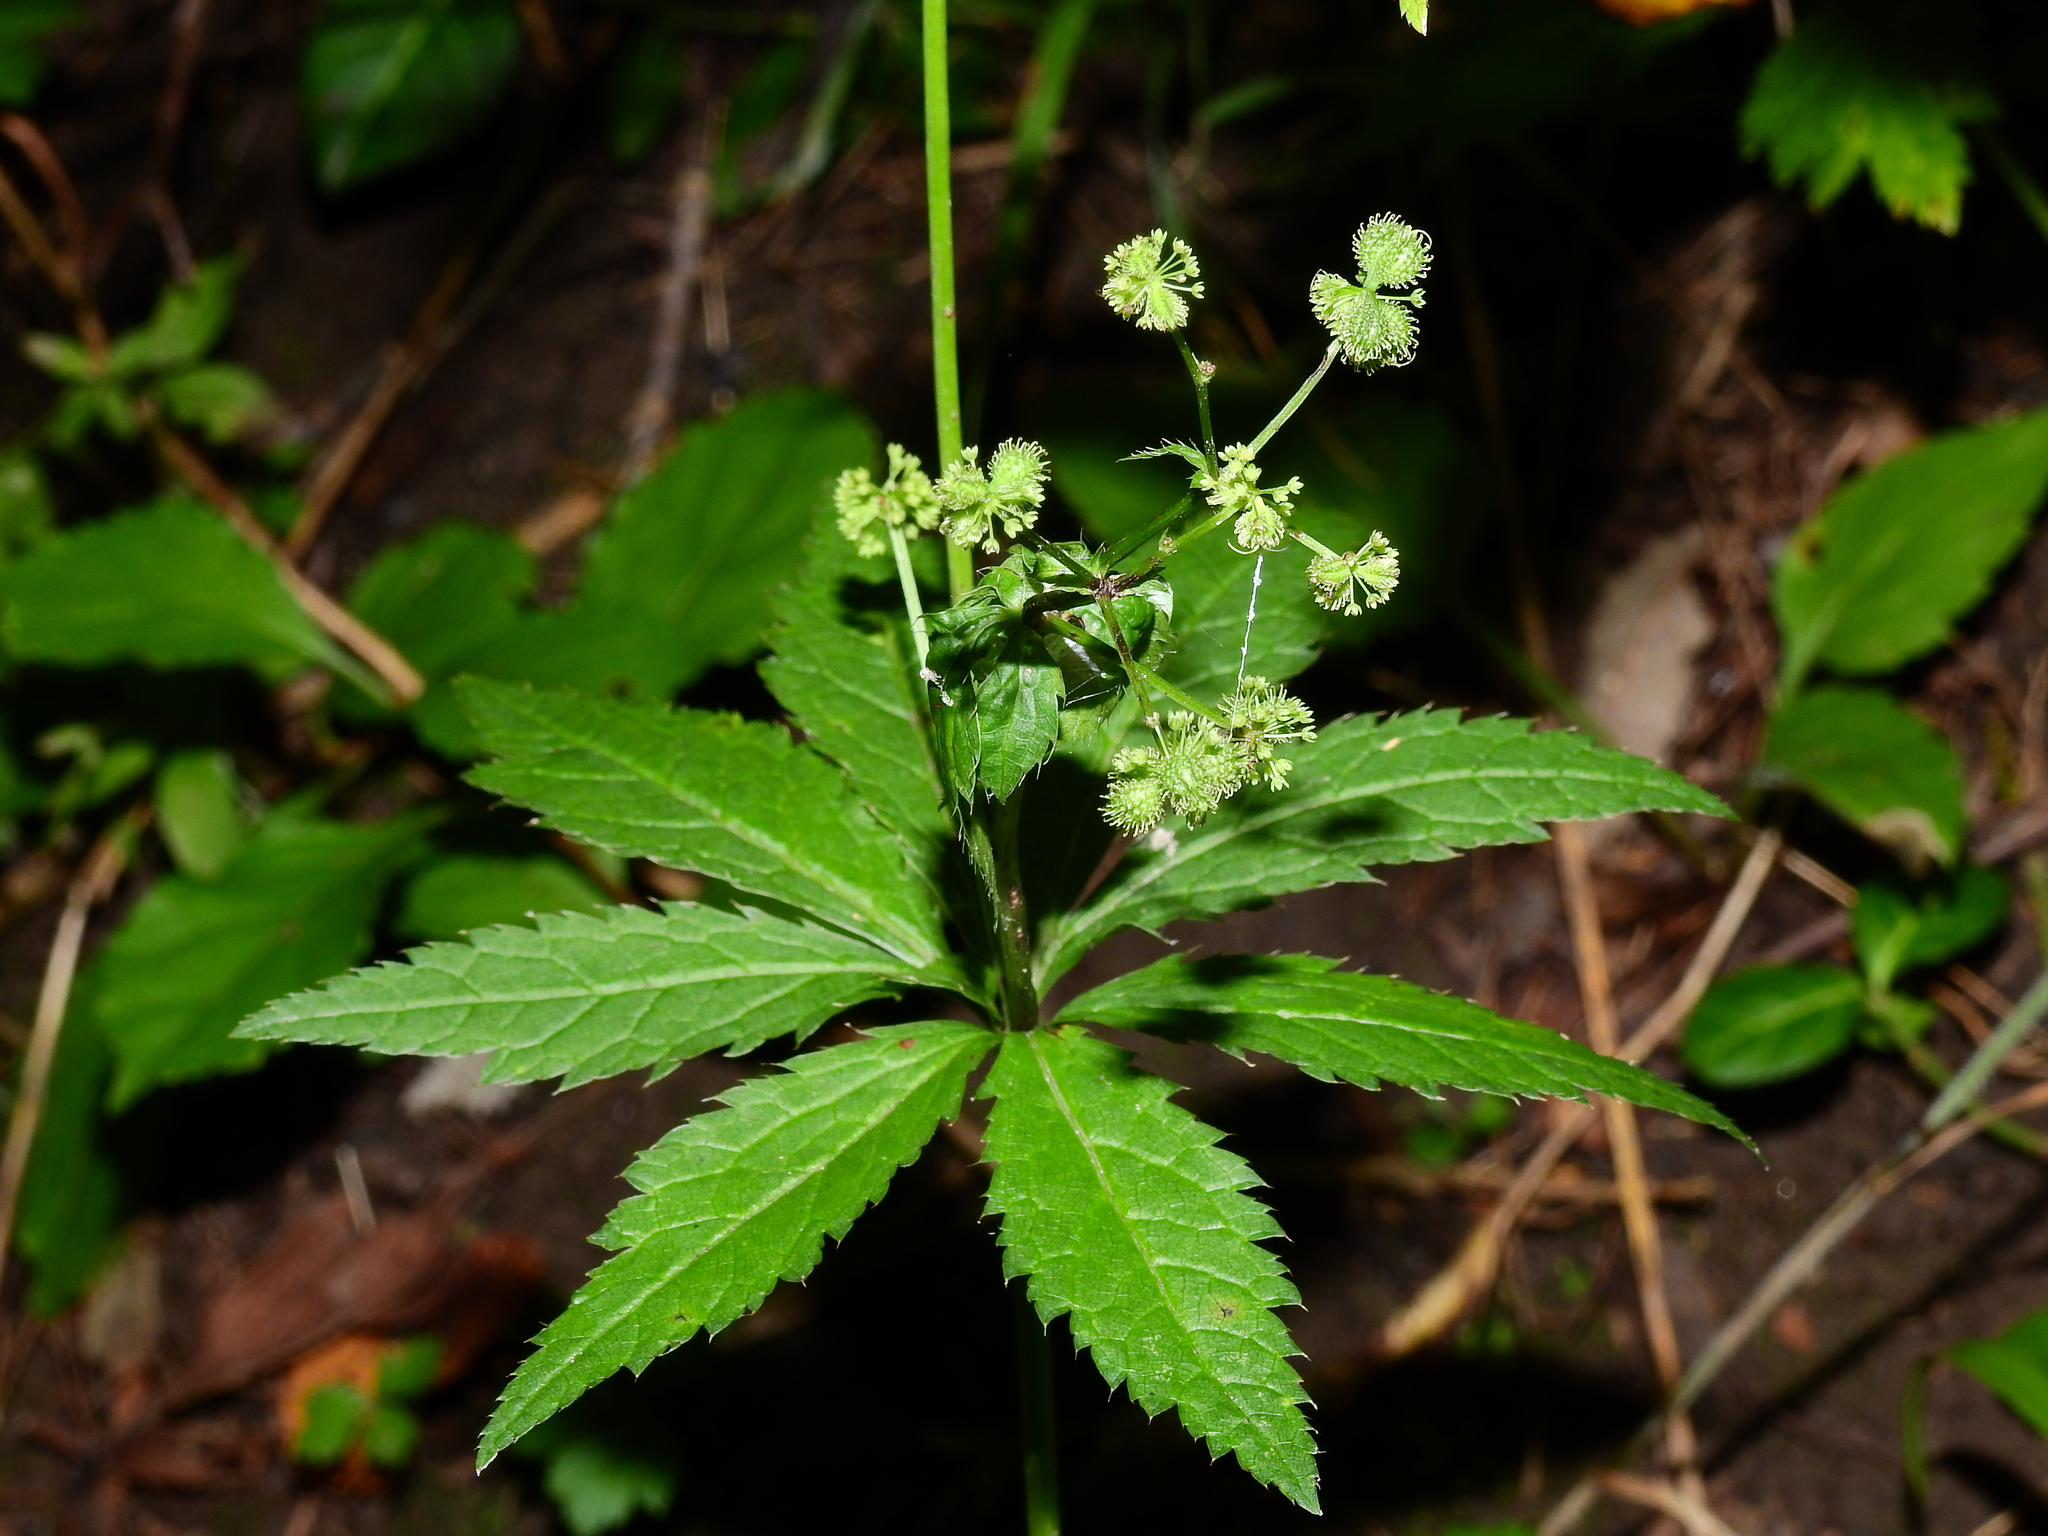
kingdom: Plantae
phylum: Tracheophyta
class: Magnoliopsida
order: Apiales
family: Apiaceae
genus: Sanicula
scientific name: Sanicula
